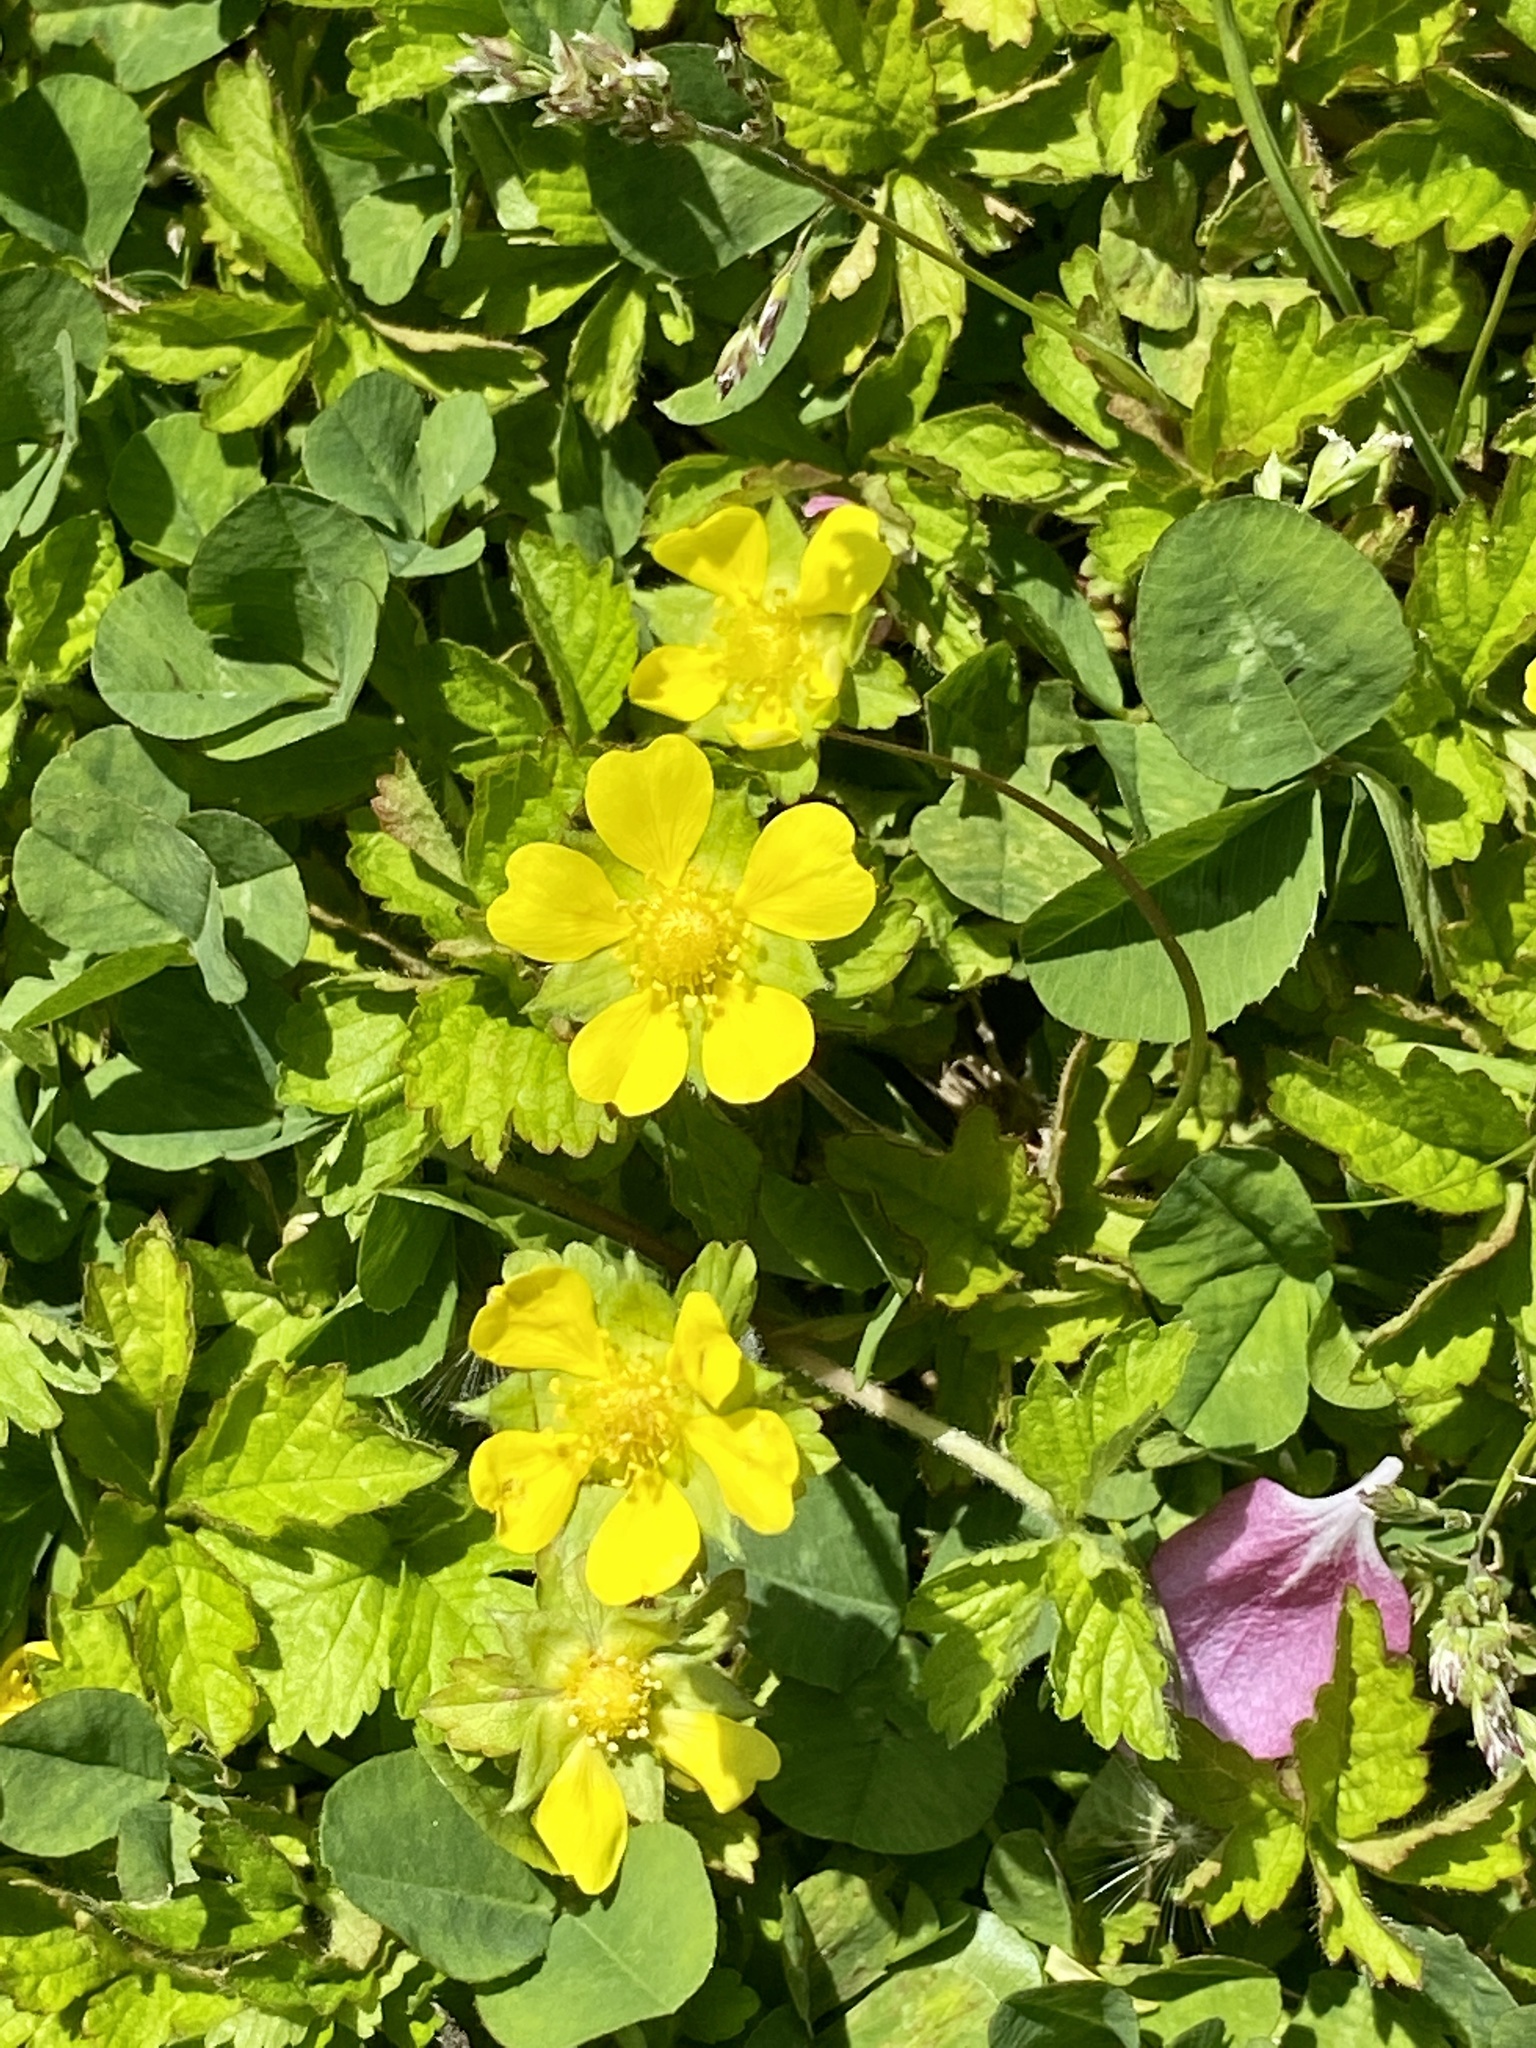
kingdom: Plantae
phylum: Tracheophyta
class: Magnoliopsida
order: Rosales
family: Rosaceae
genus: Potentilla
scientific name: Potentilla indica
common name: Yellow-flowered strawberry
